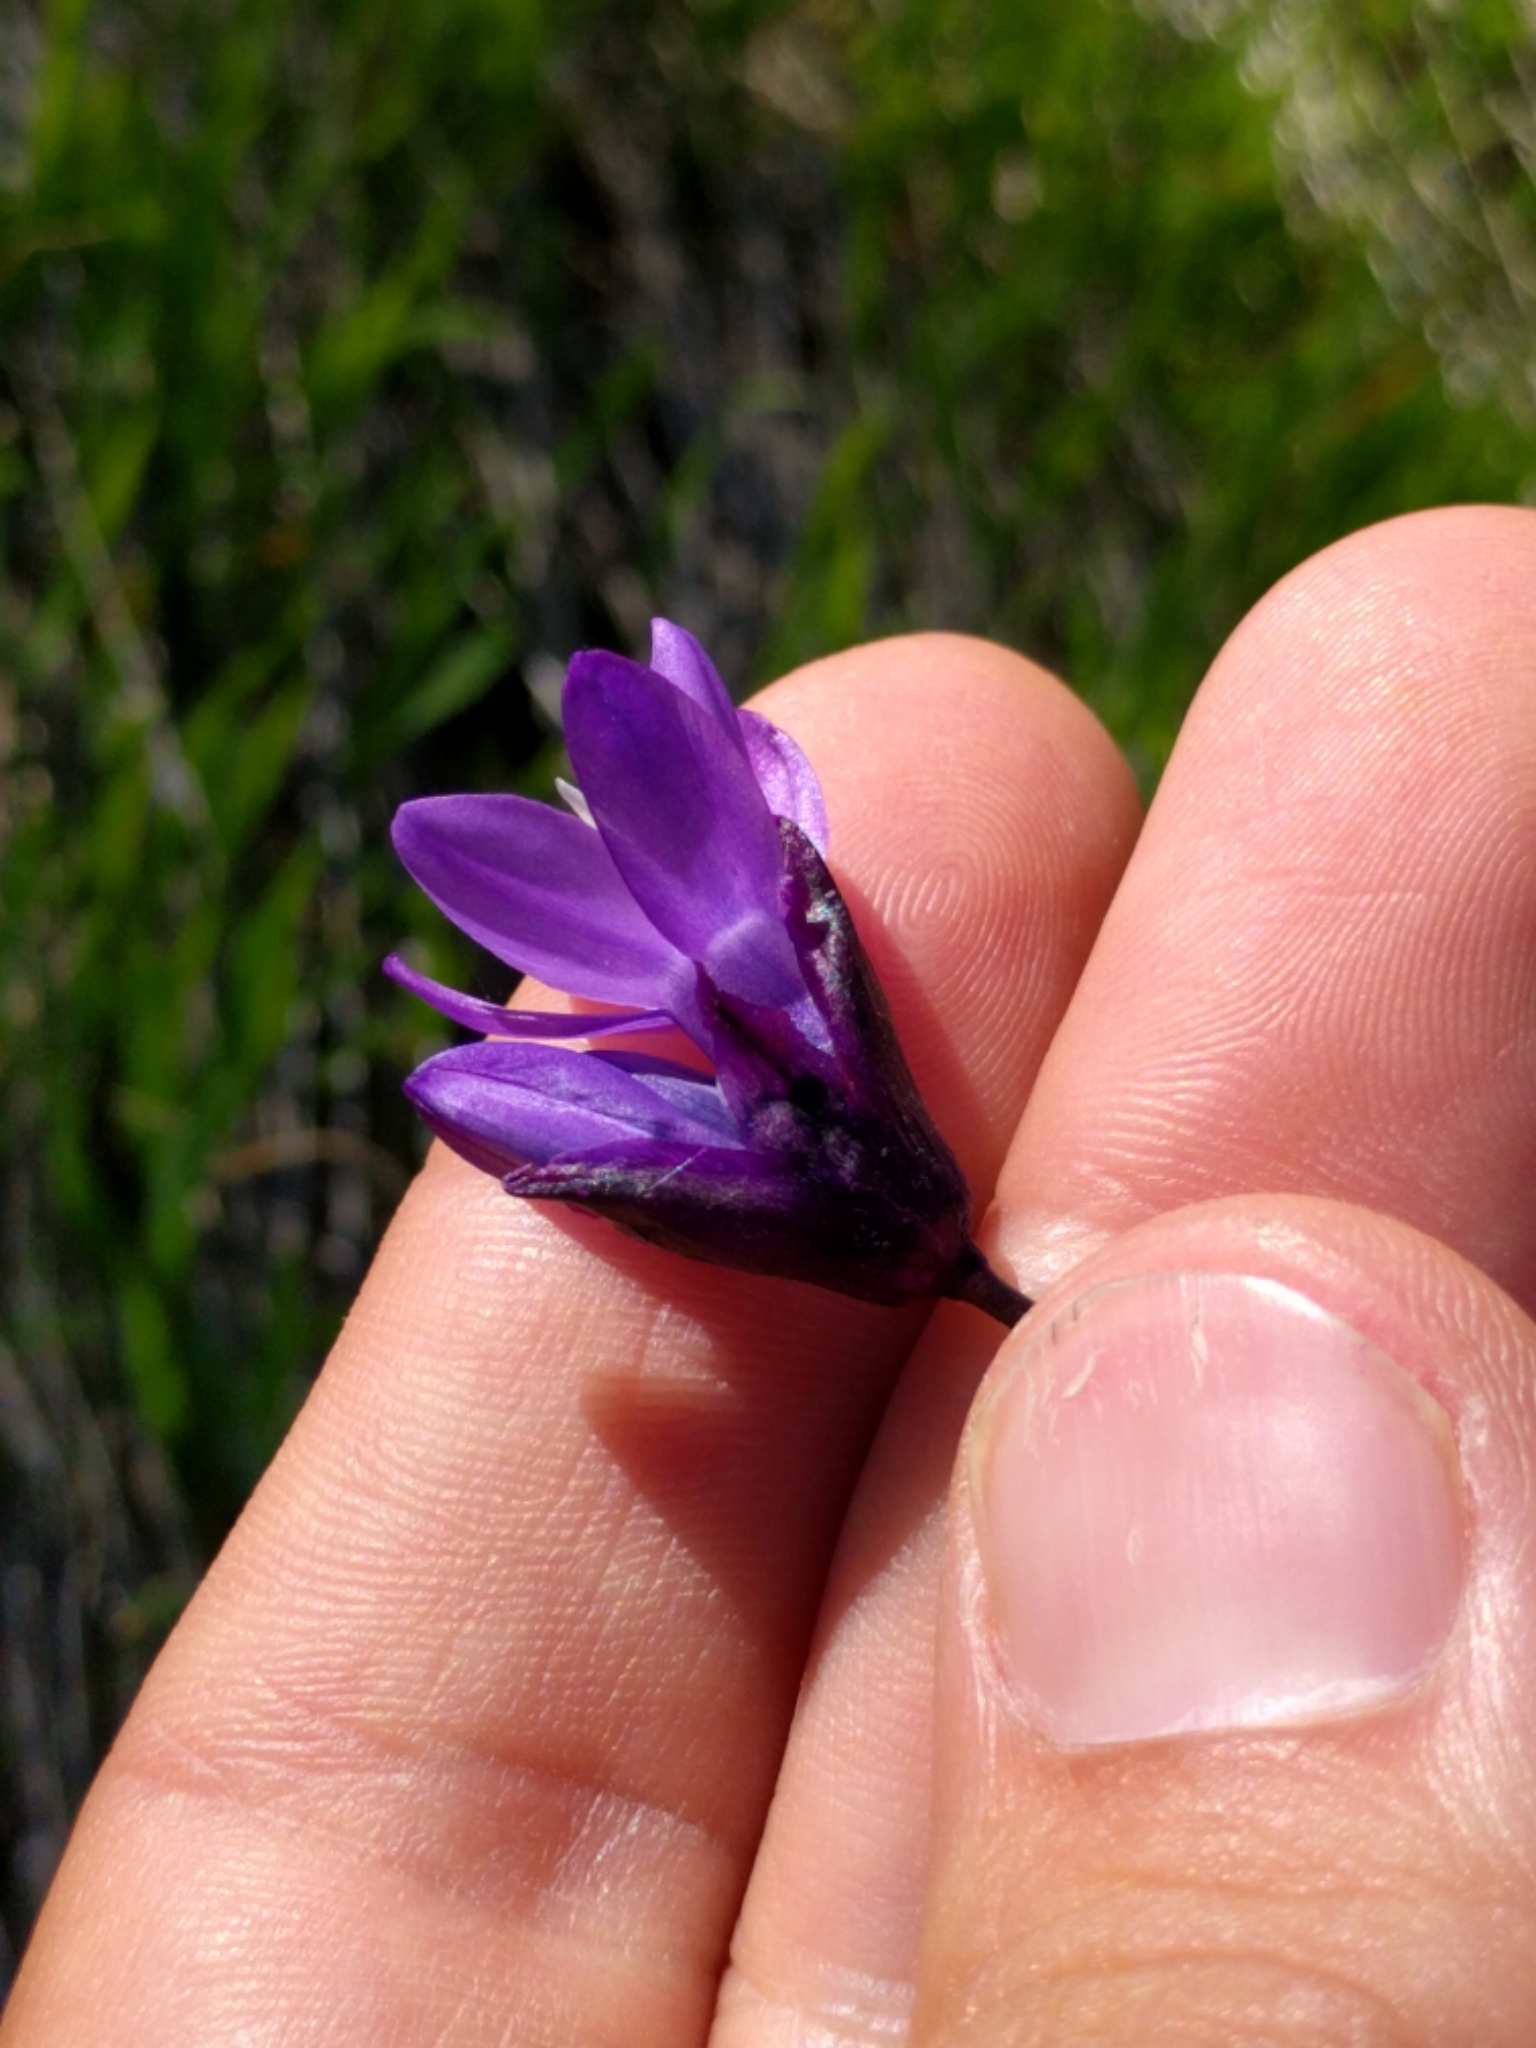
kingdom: Plantae
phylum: Tracheophyta
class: Liliopsida
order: Asparagales
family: Asparagaceae
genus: Dipterostemon
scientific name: Dipterostemon capitatus
